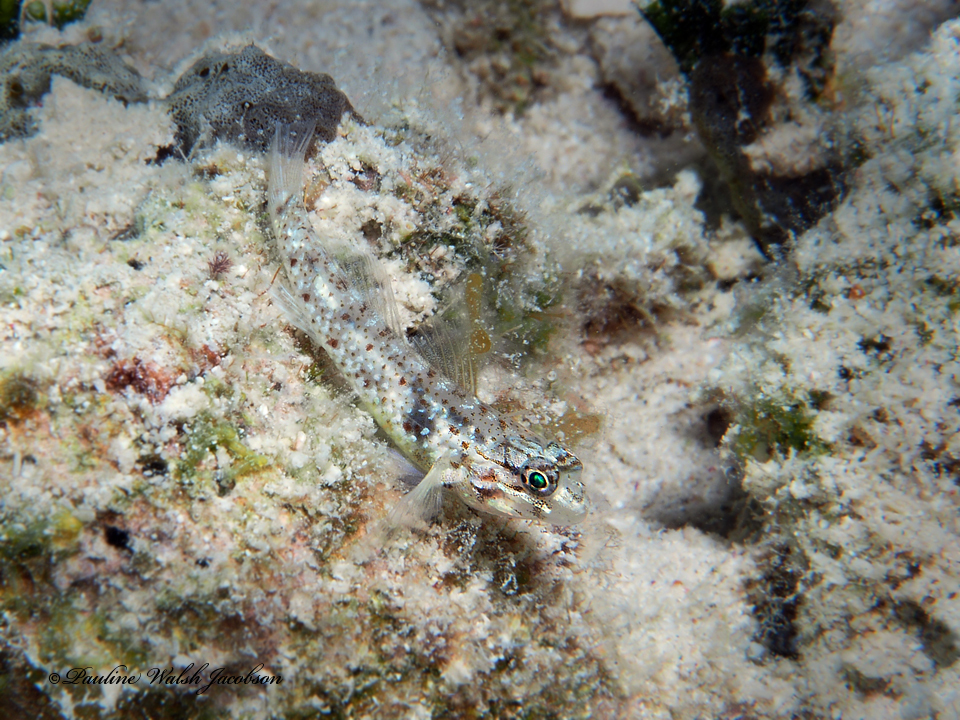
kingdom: Animalia
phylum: Chordata
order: Perciformes
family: Gobiidae
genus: Coryphopterus
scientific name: Coryphopterus dicrus
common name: Colon goby
